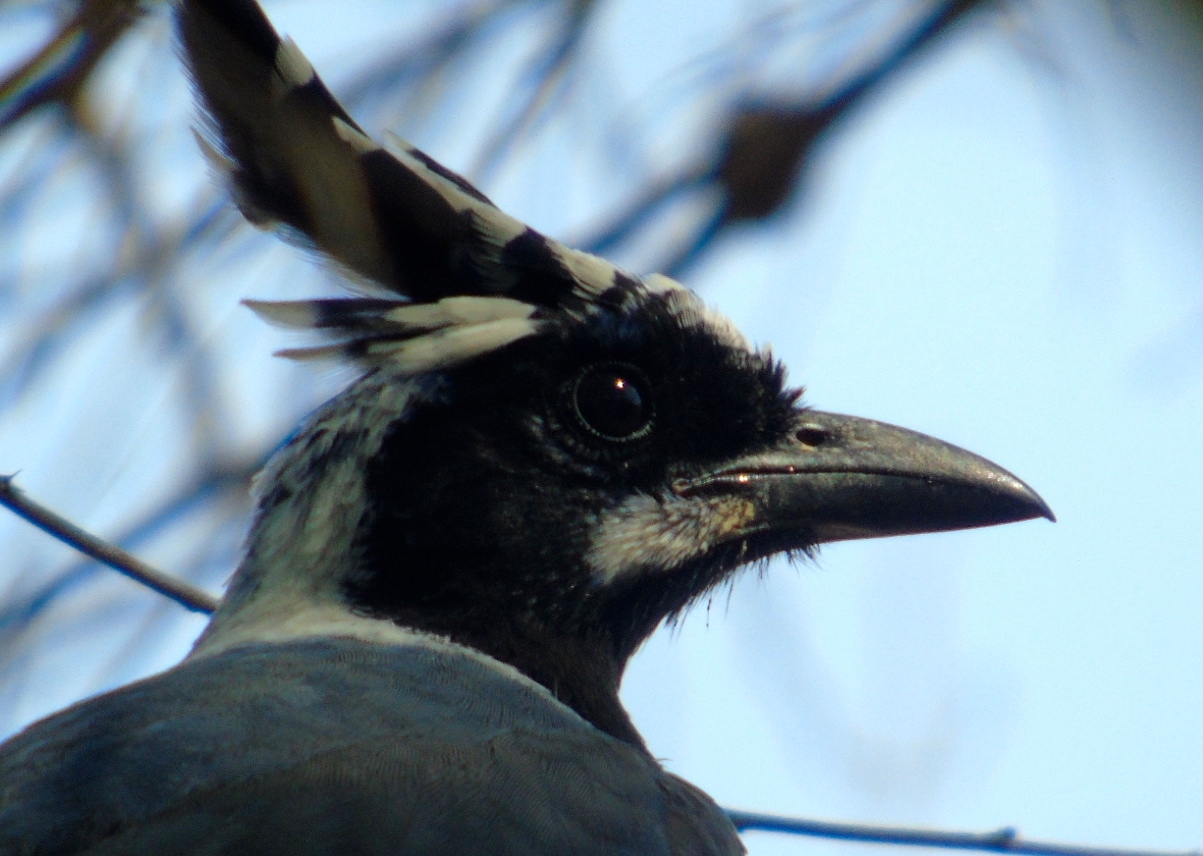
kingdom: Animalia
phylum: Chordata
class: Aves
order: Passeriformes
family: Corvidae
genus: Calocitta
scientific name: Calocitta colliei
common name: Black-throated magpie-jay
